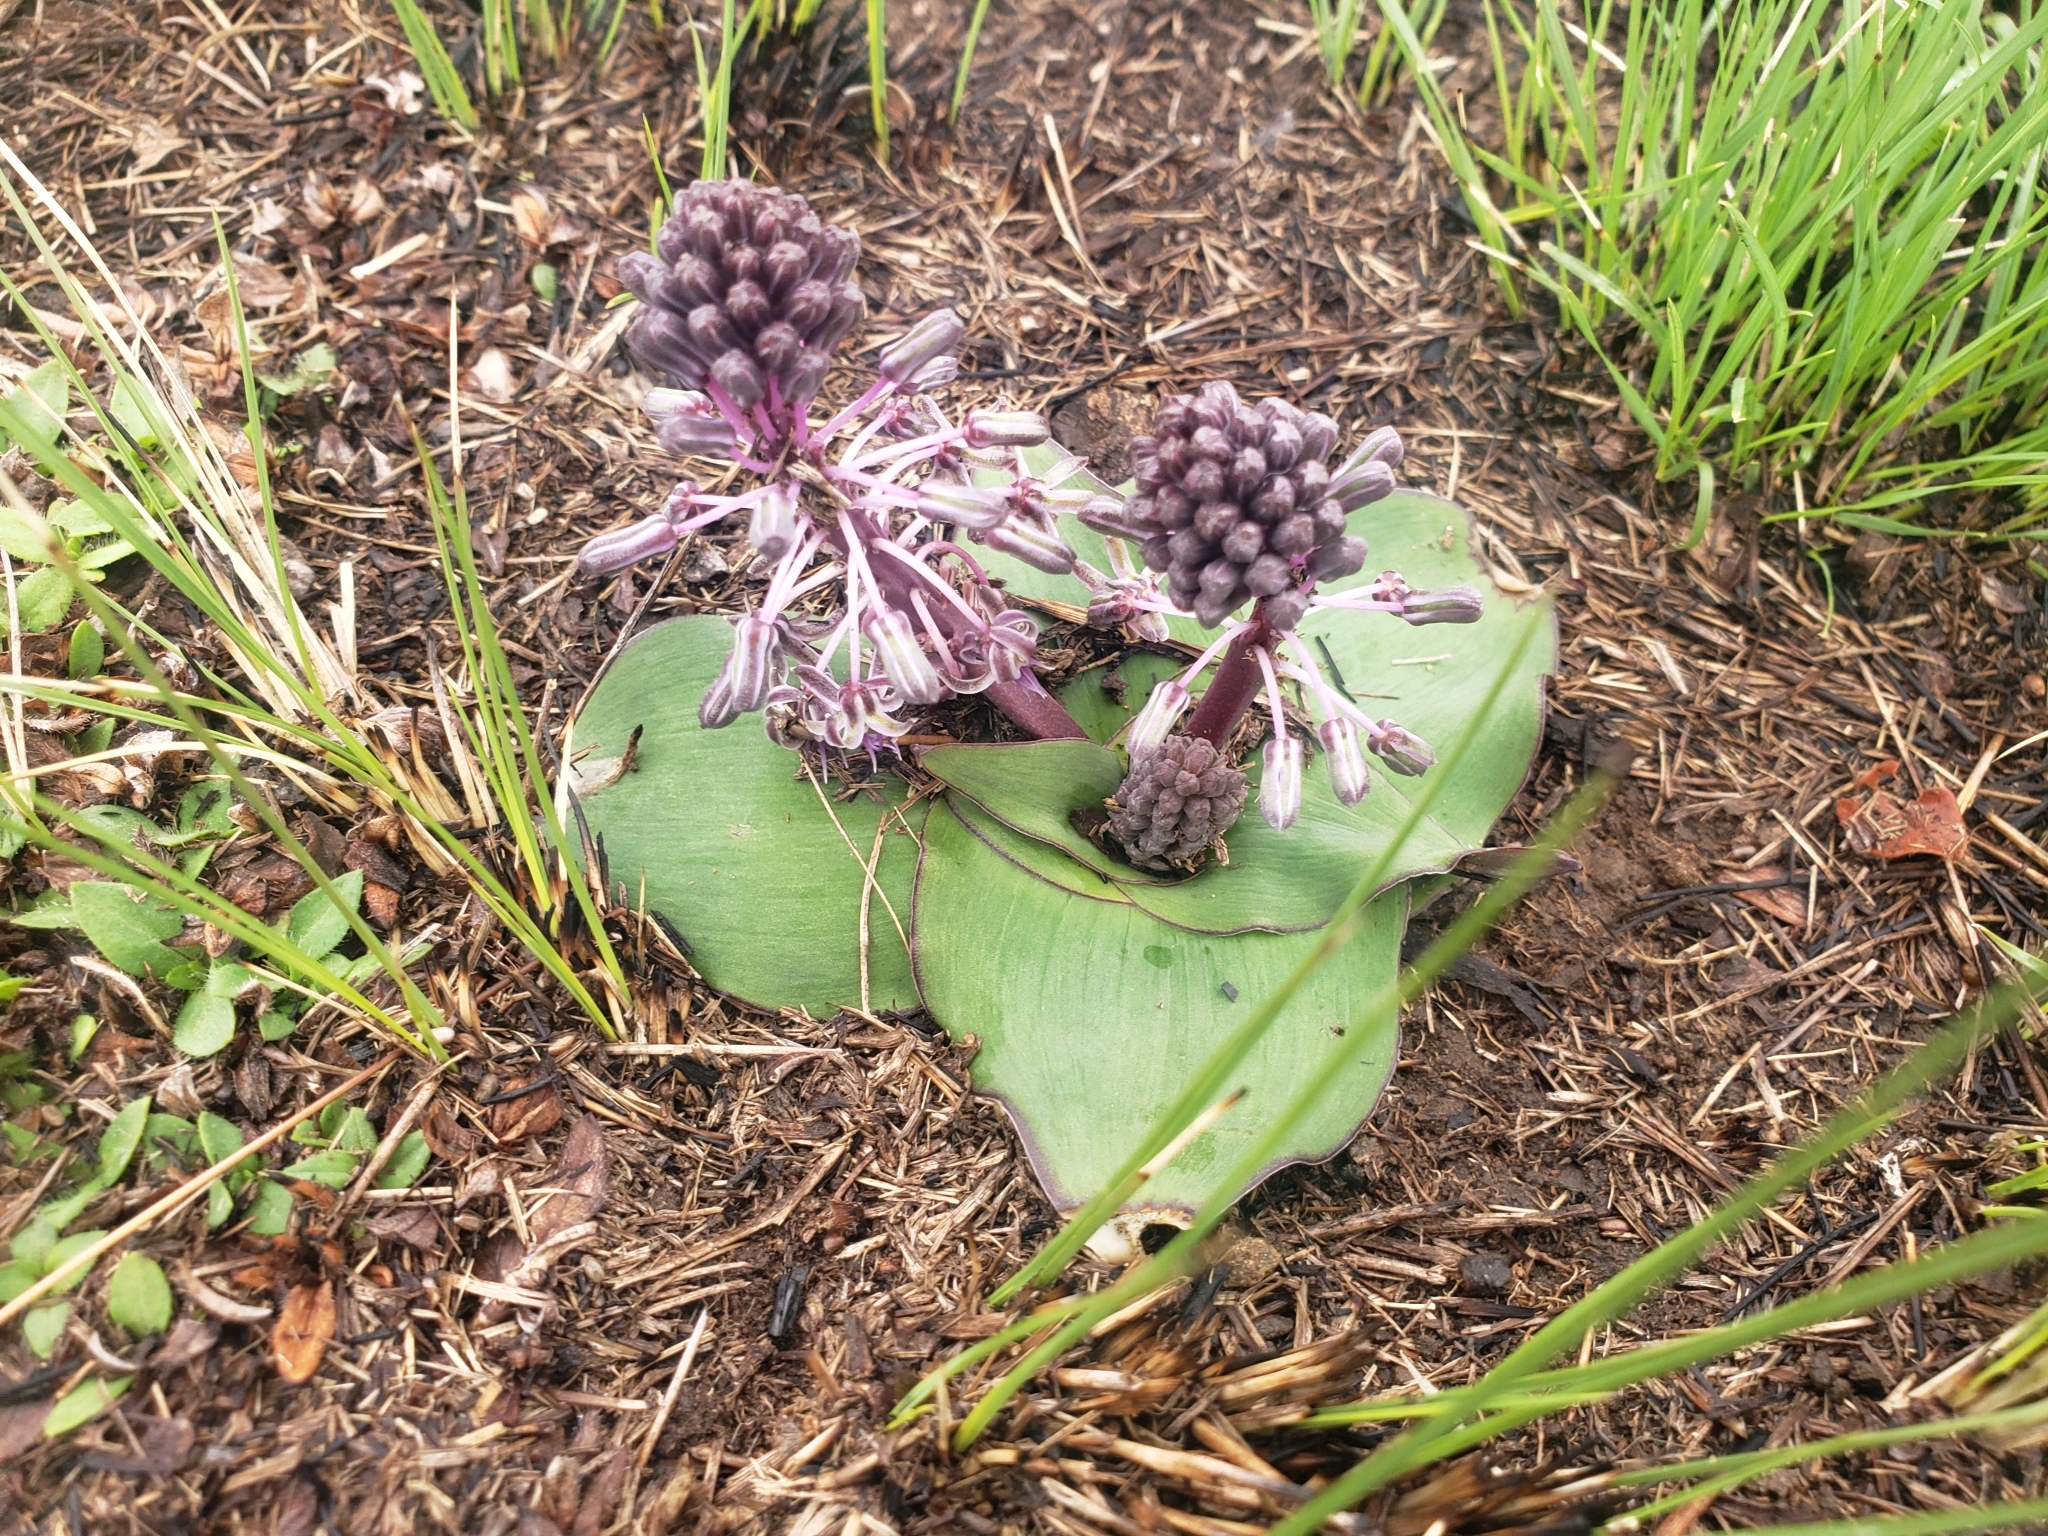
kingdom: Plantae
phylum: Tracheophyta
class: Liliopsida
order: Asparagales
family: Asparagaceae
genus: Ledebouria
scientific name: Ledebouria ovatifolia
